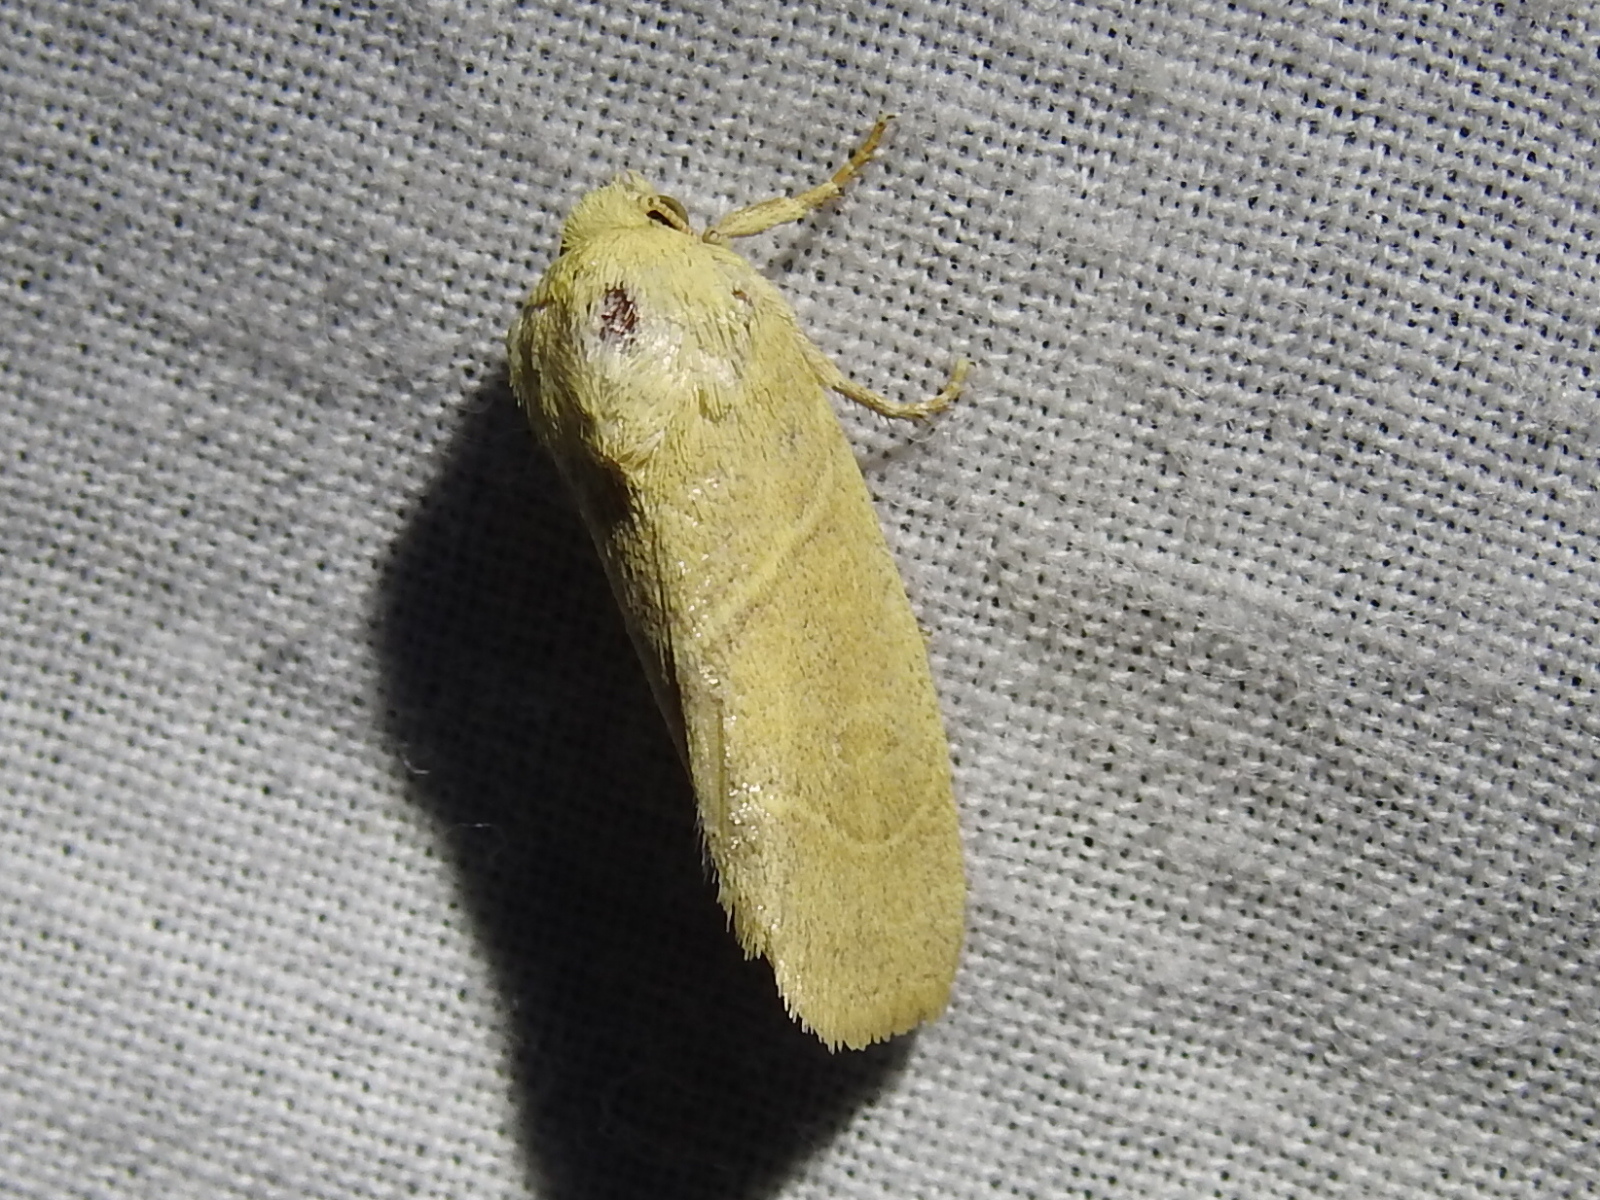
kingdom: Animalia
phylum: Arthropoda
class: Insecta
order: Lepidoptera
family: Noctuidae
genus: Cosmia
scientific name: Cosmia calami
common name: American dun-bar moth
